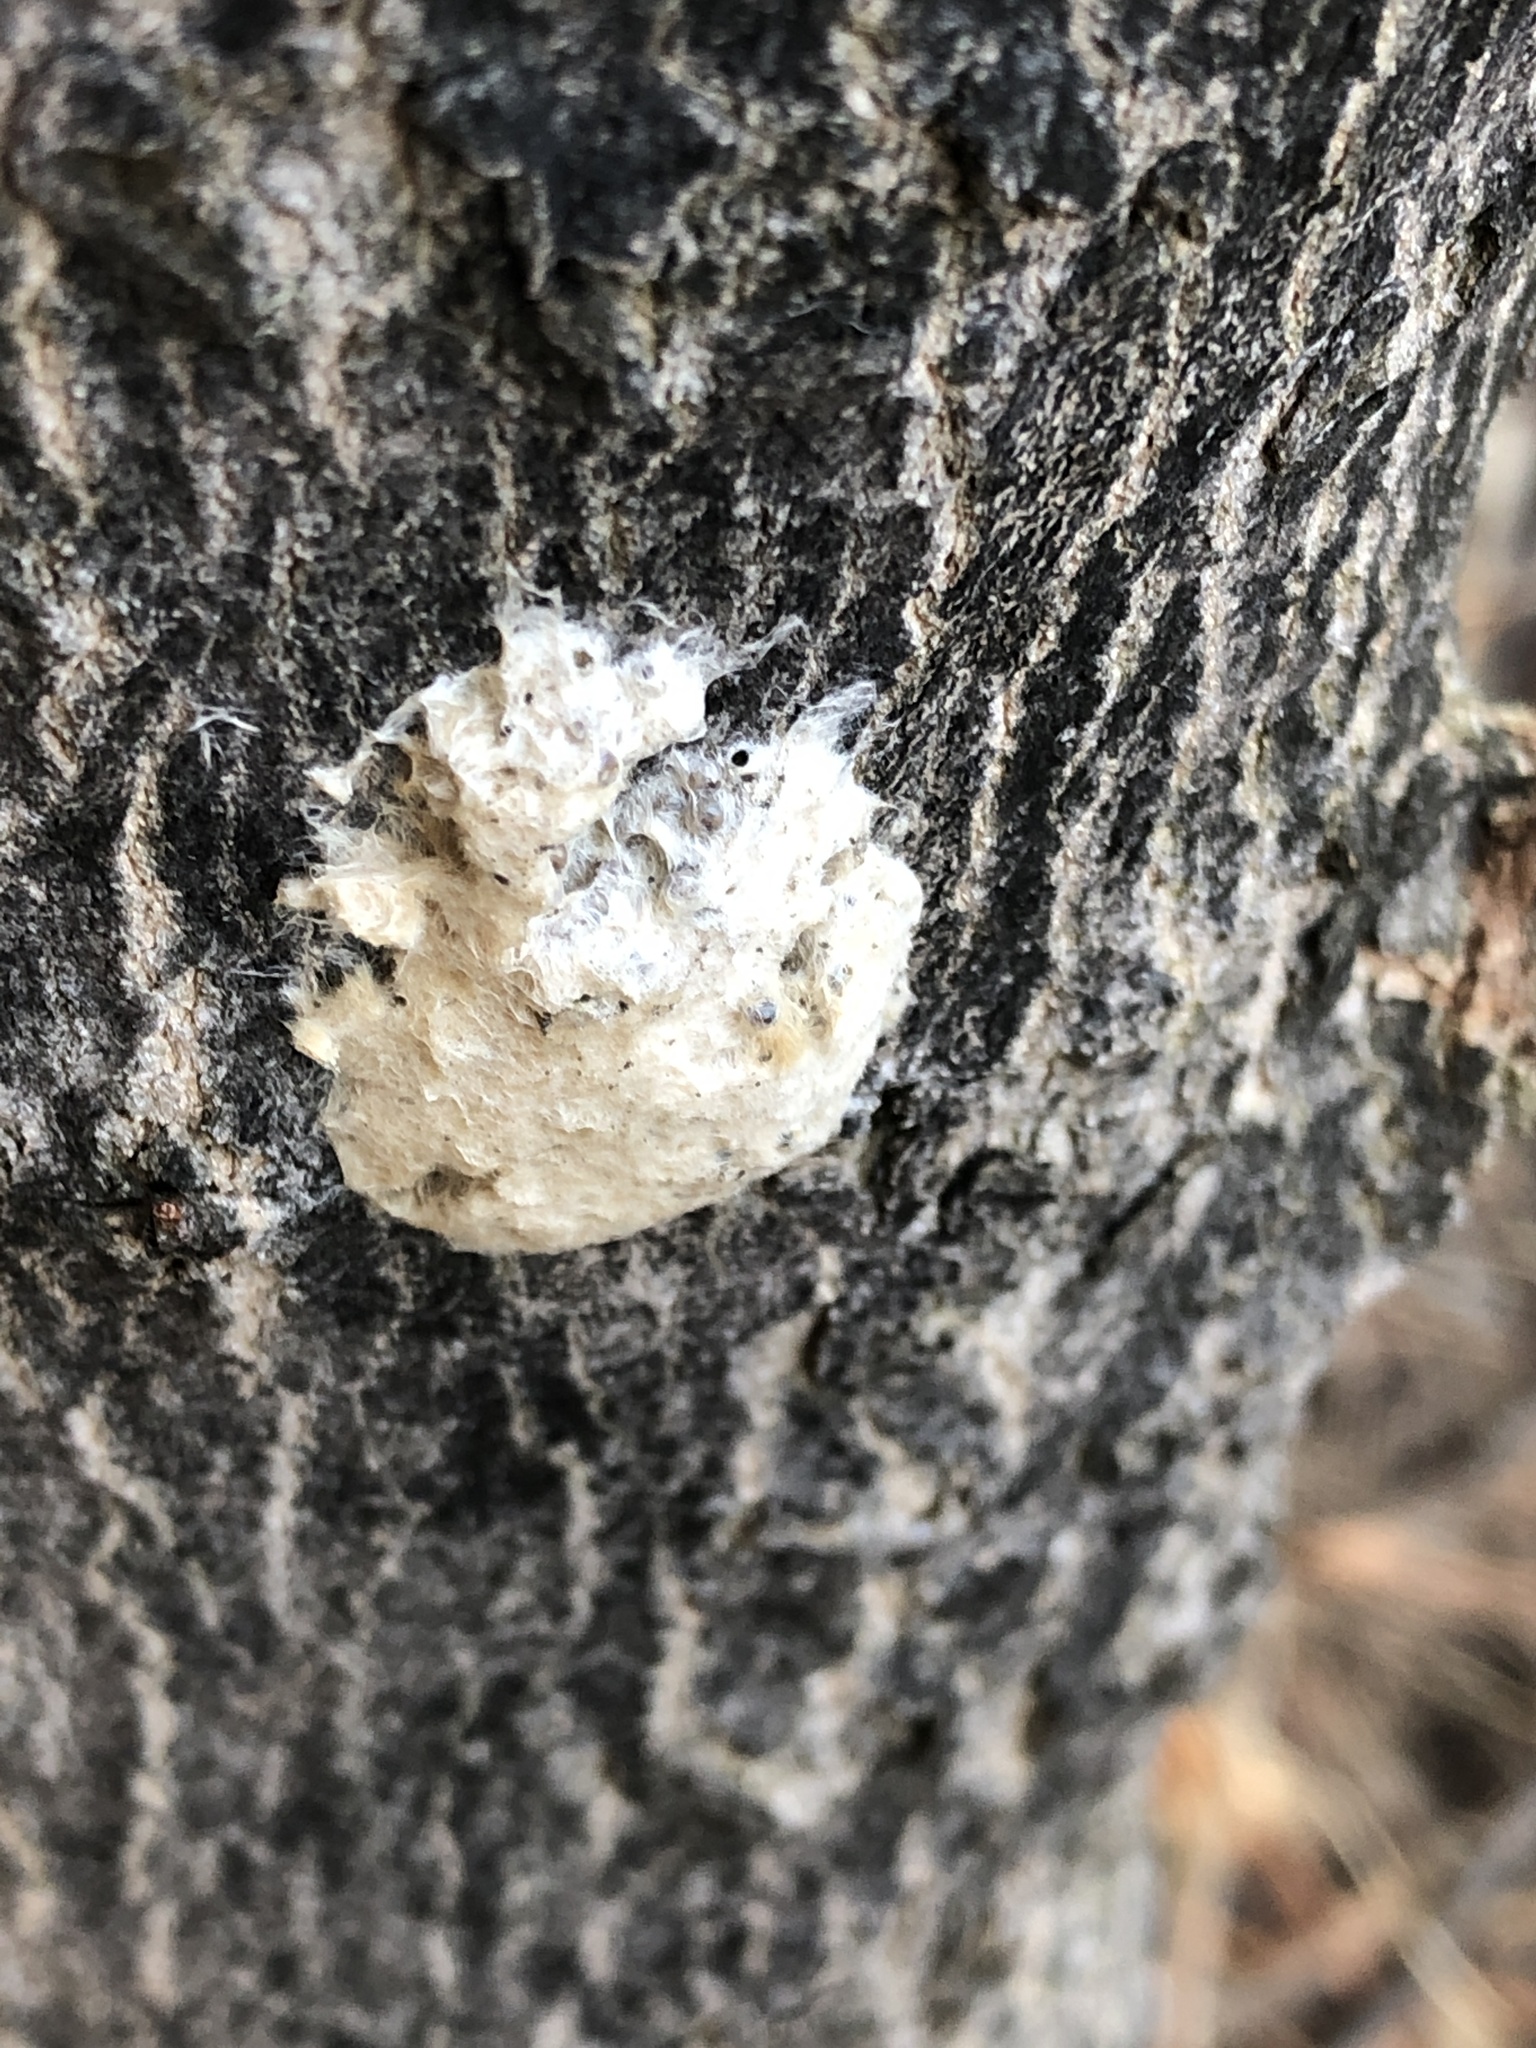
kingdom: Animalia
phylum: Arthropoda
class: Insecta
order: Lepidoptera
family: Erebidae
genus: Lymantria
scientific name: Lymantria dispar
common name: Gypsy moth
